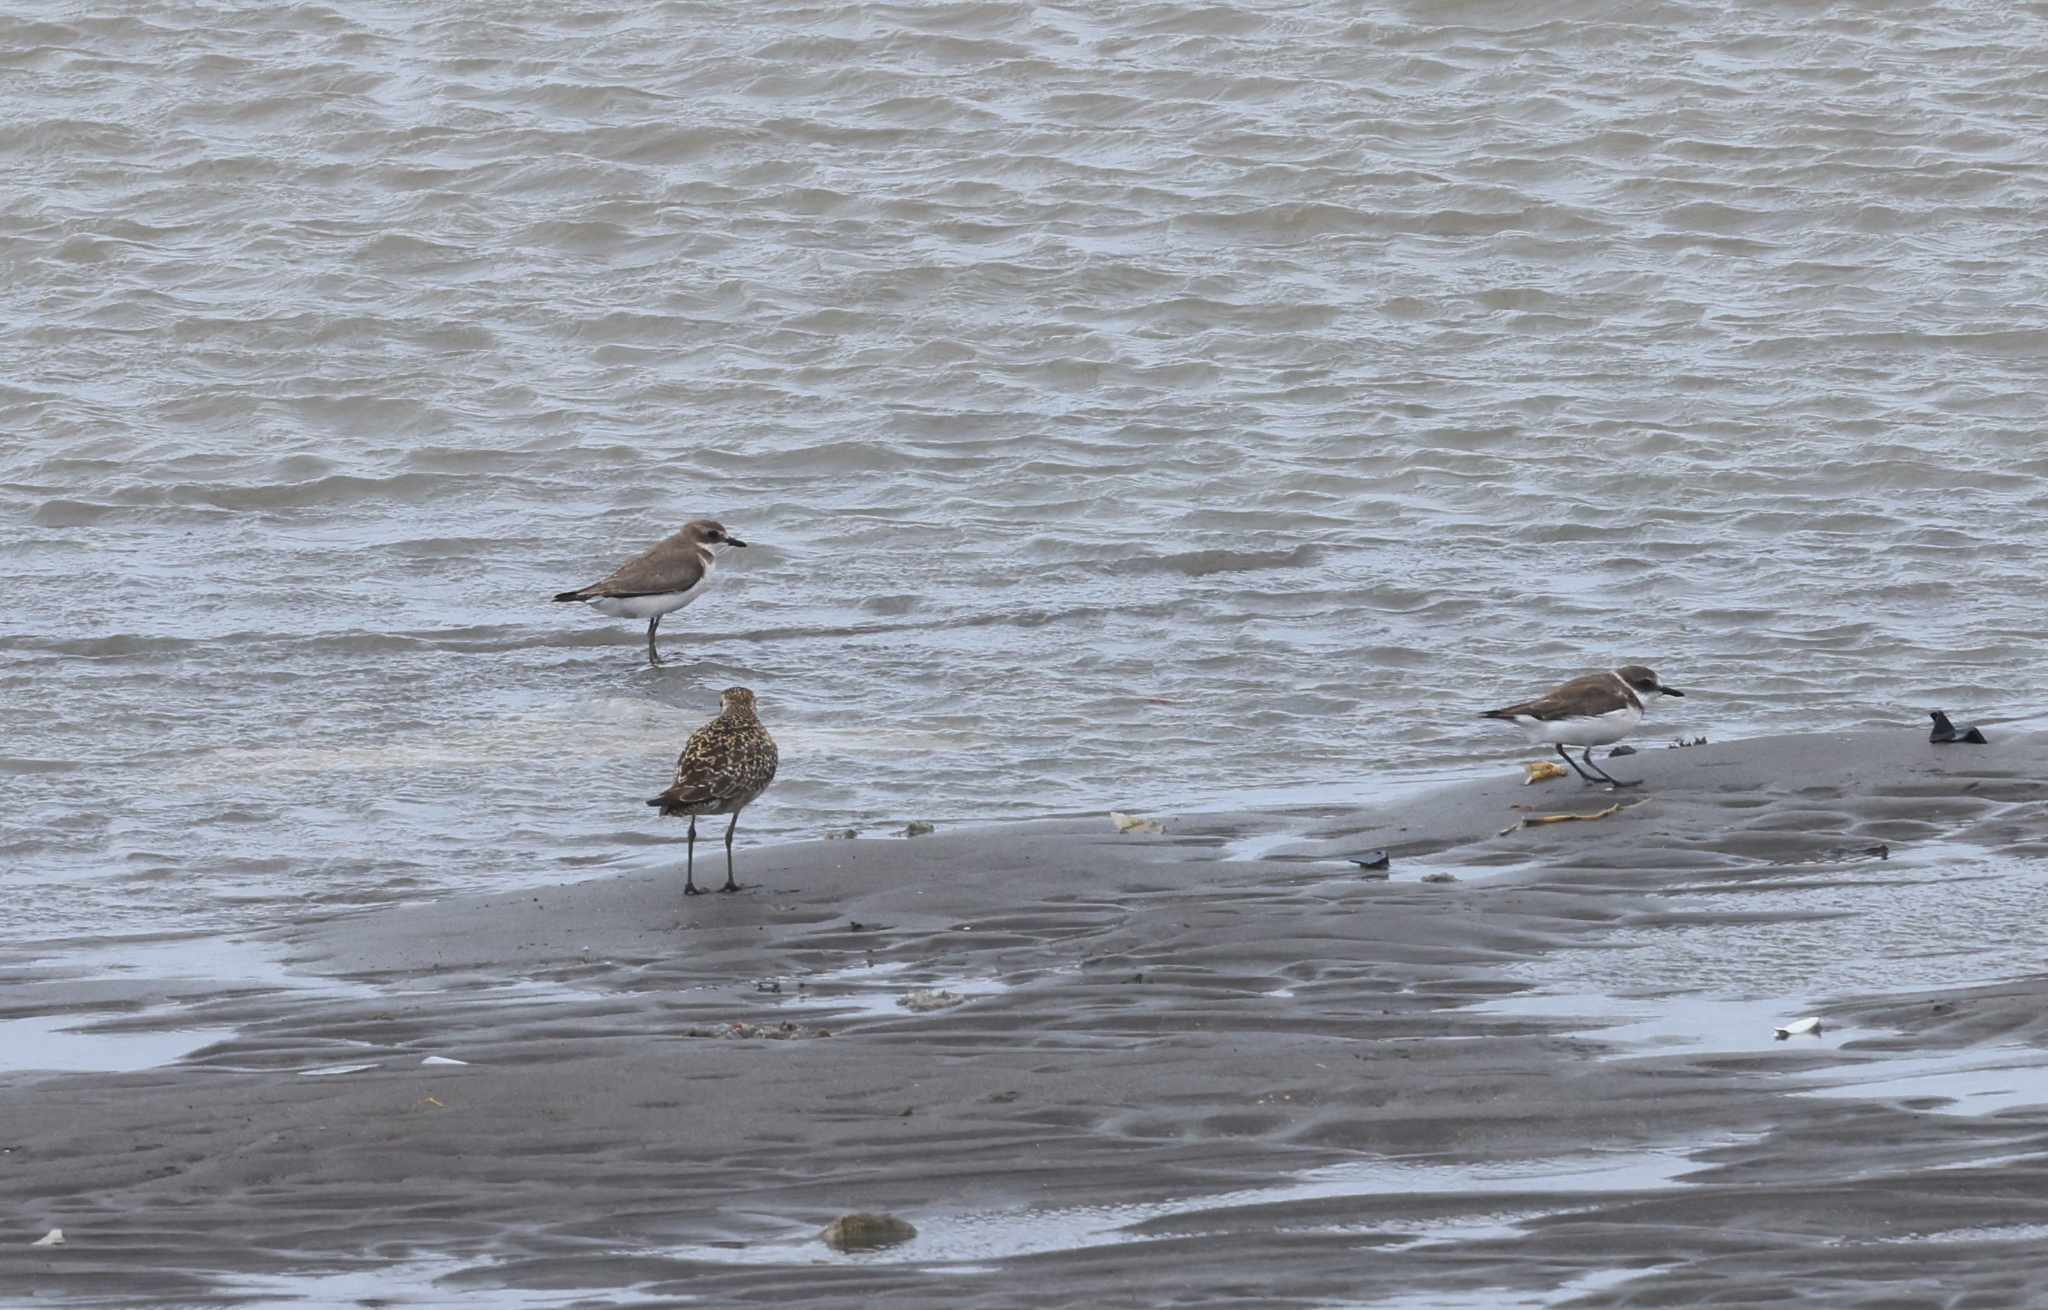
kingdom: Animalia
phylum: Chordata
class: Aves
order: Charadriiformes
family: Charadriidae
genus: Pluvialis
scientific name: Pluvialis fulva
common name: Pacific golden plover
